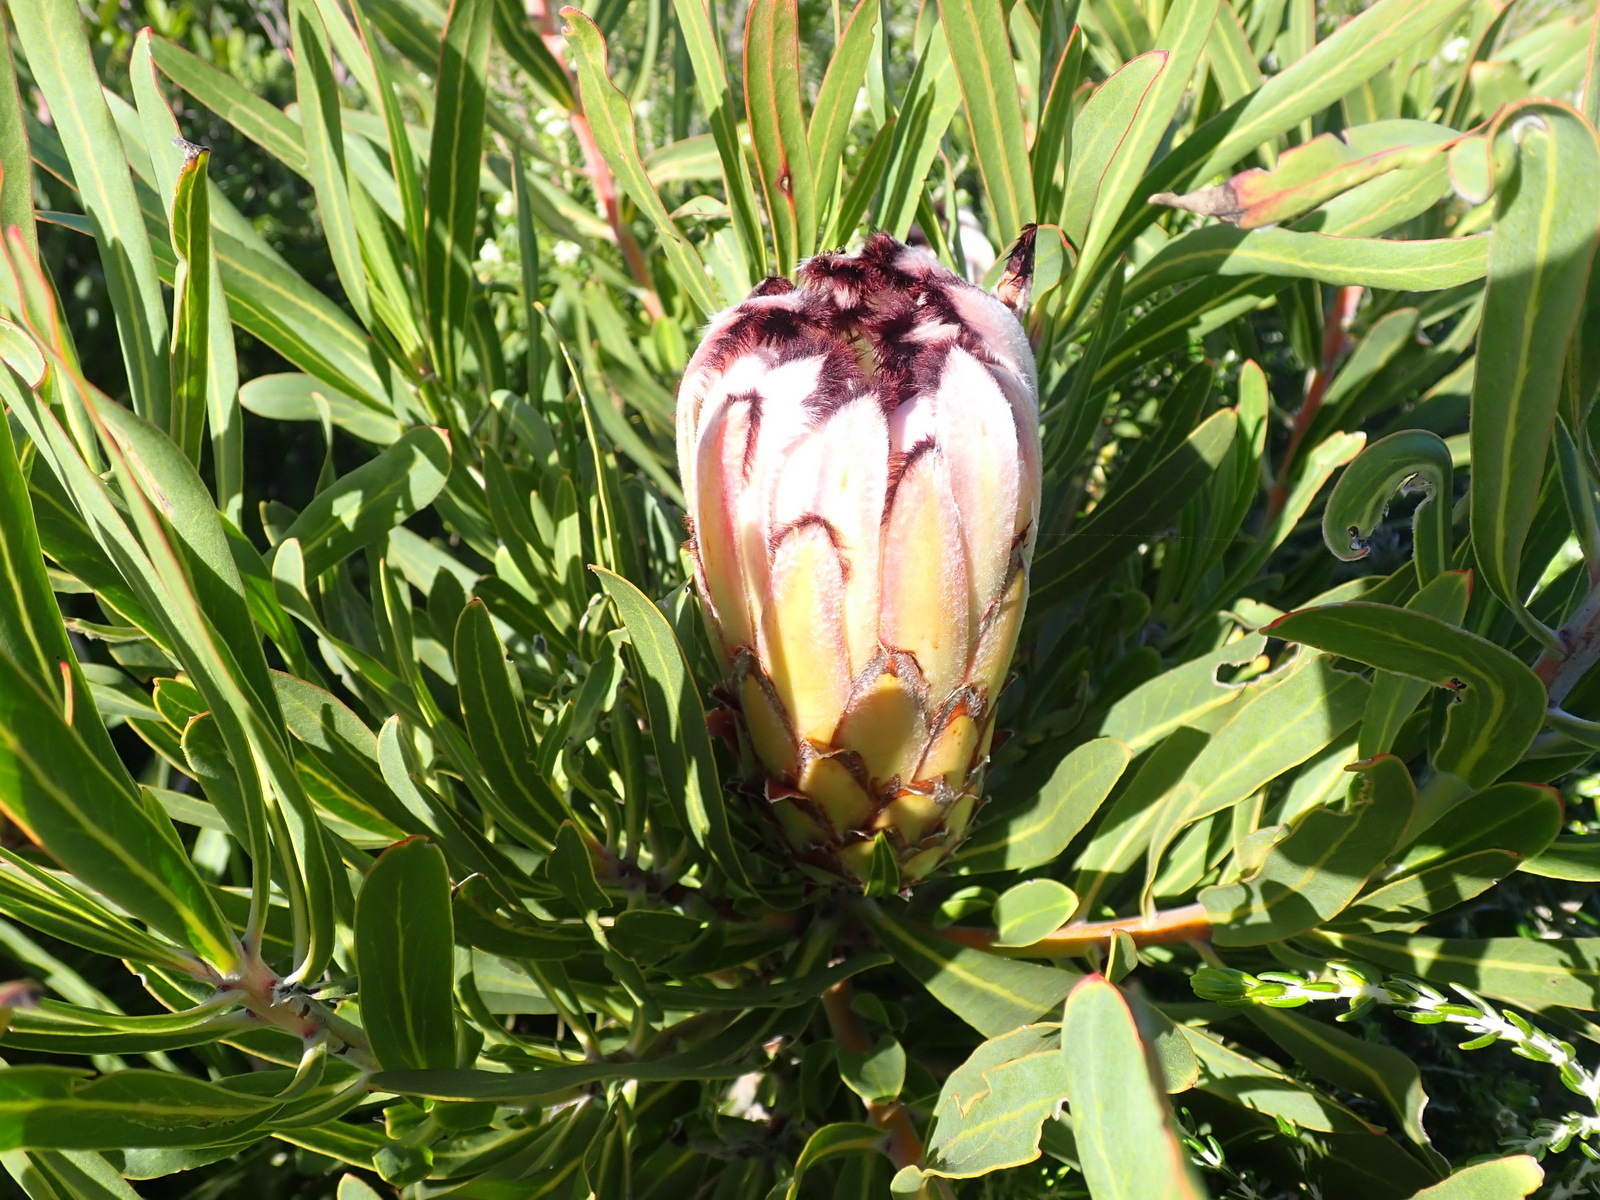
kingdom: Plantae
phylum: Tracheophyta
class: Magnoliopsida
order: Proteales
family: Proteaceae
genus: Protea
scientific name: Protea neriifolia
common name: Blue sugarbush
